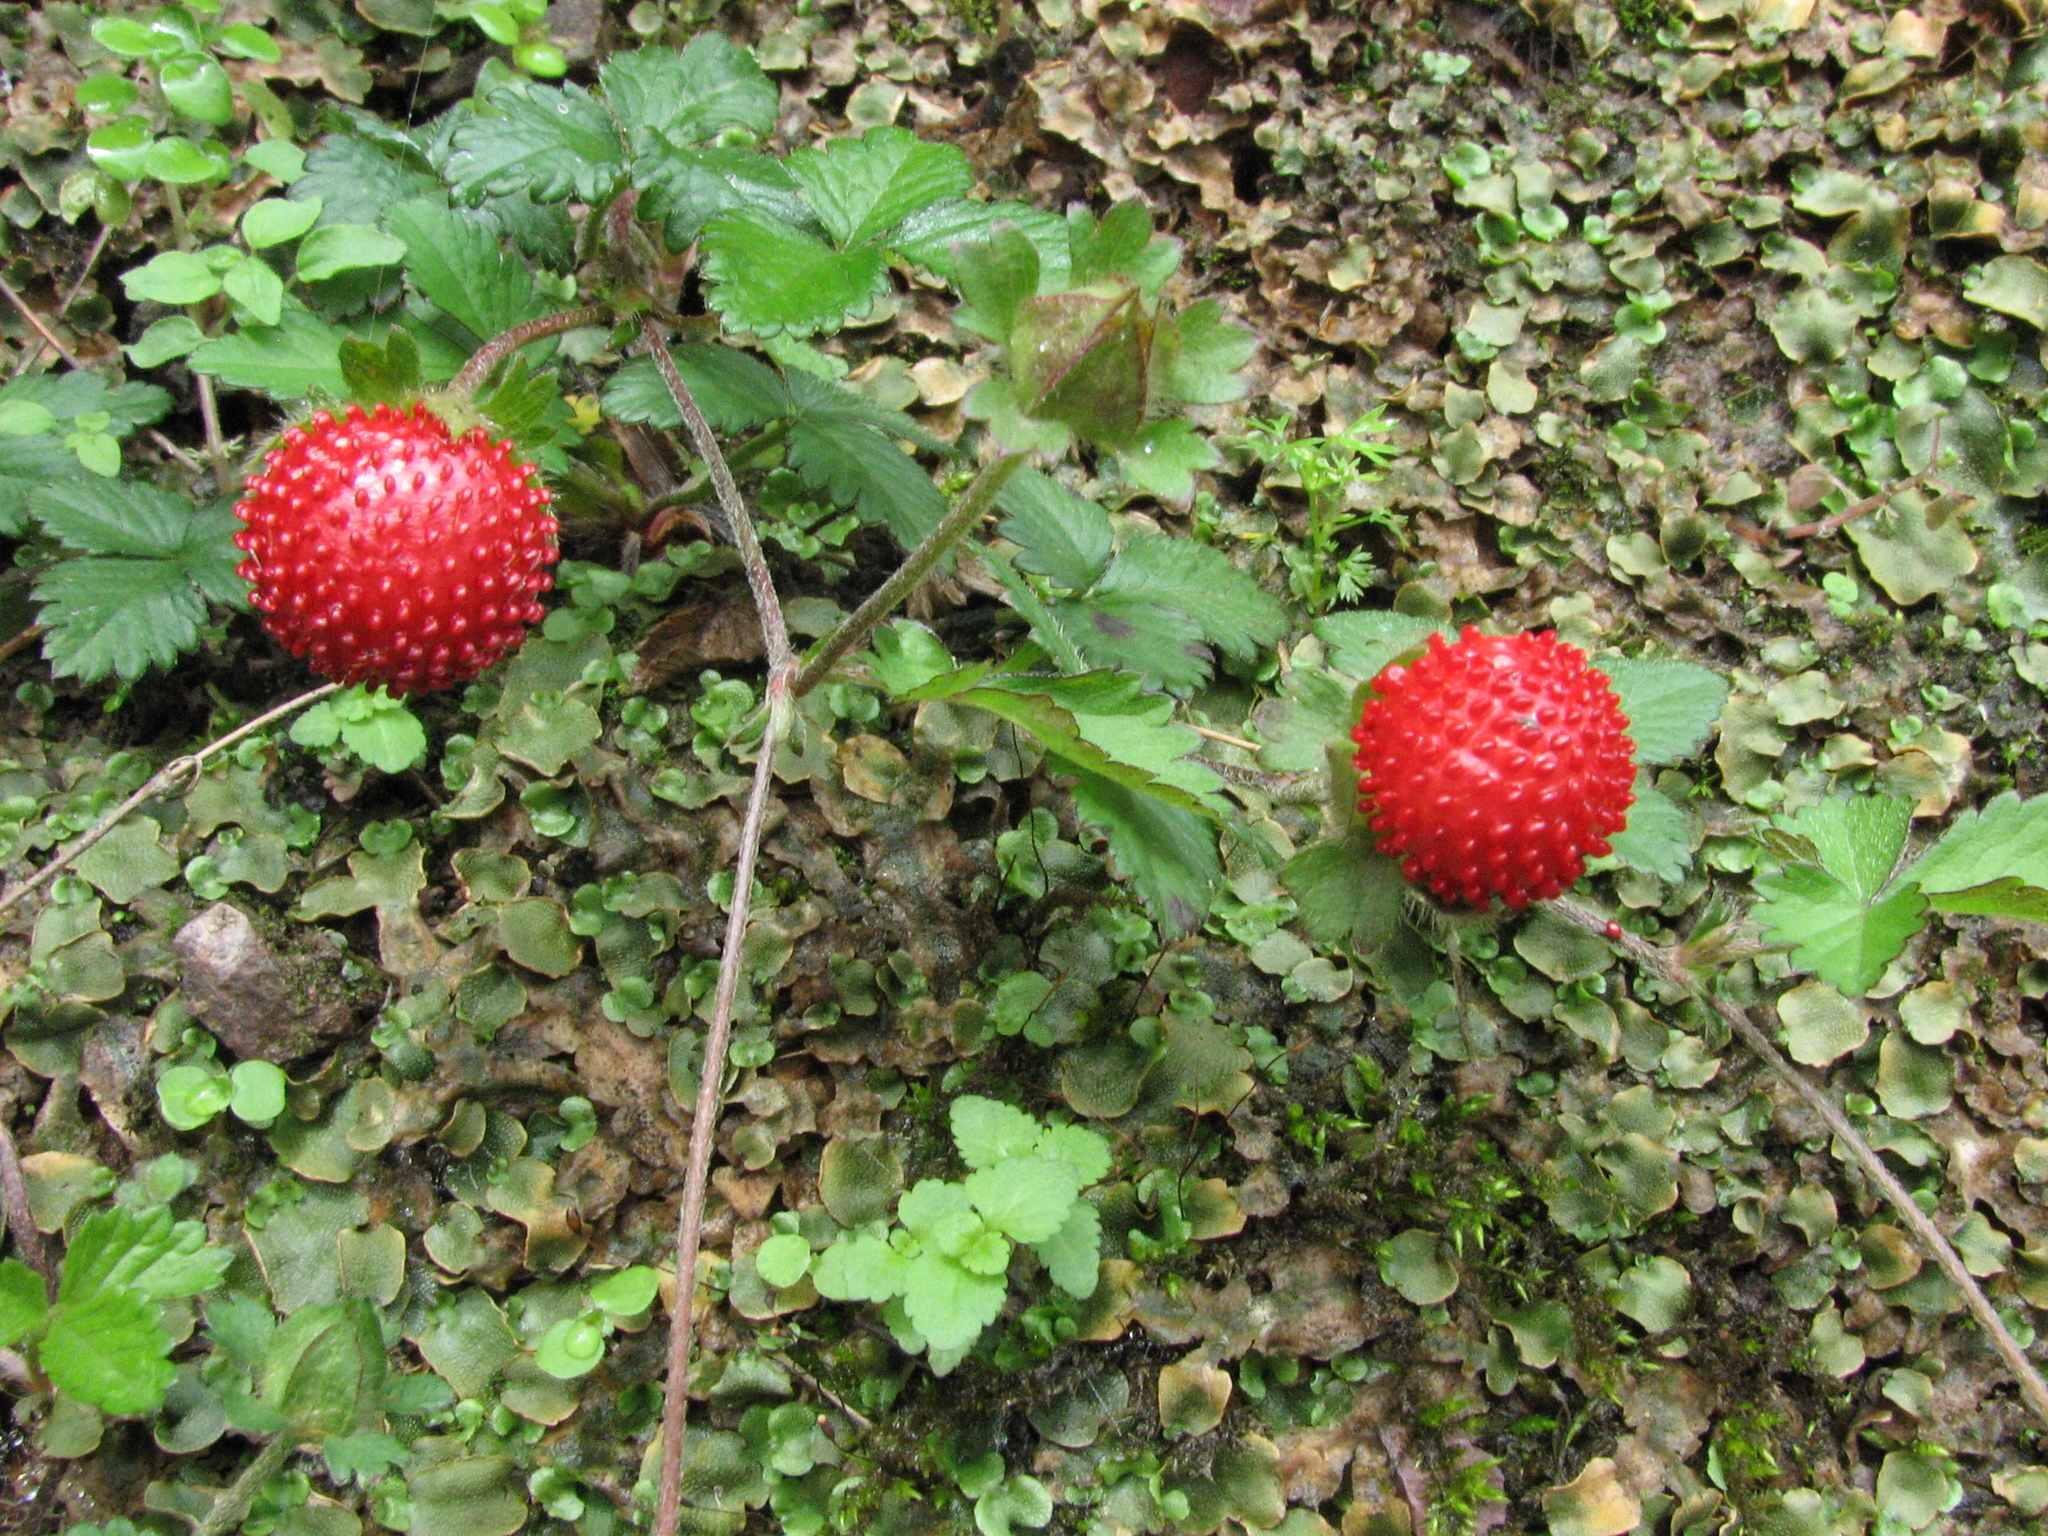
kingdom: Plantae
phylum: Tracheophyta
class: Magnoliopsida
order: Rosales
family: Rosaceae
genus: Potentilla
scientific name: Potentilla indica
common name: Yellow-flowered strawberry
